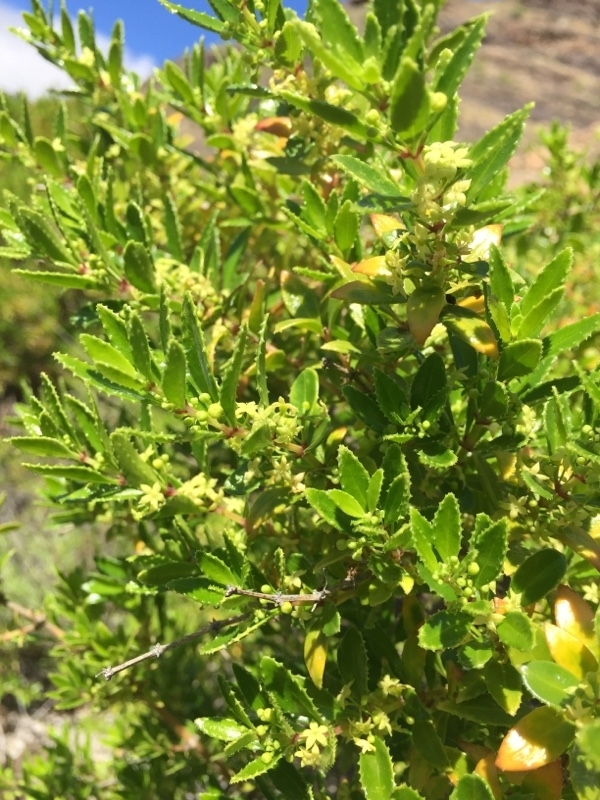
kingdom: Plantae
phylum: Tracheophyta
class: Magnoliopsida
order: Gentianales
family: Rubiaceae
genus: Rubia
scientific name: Rubia fruticosa
